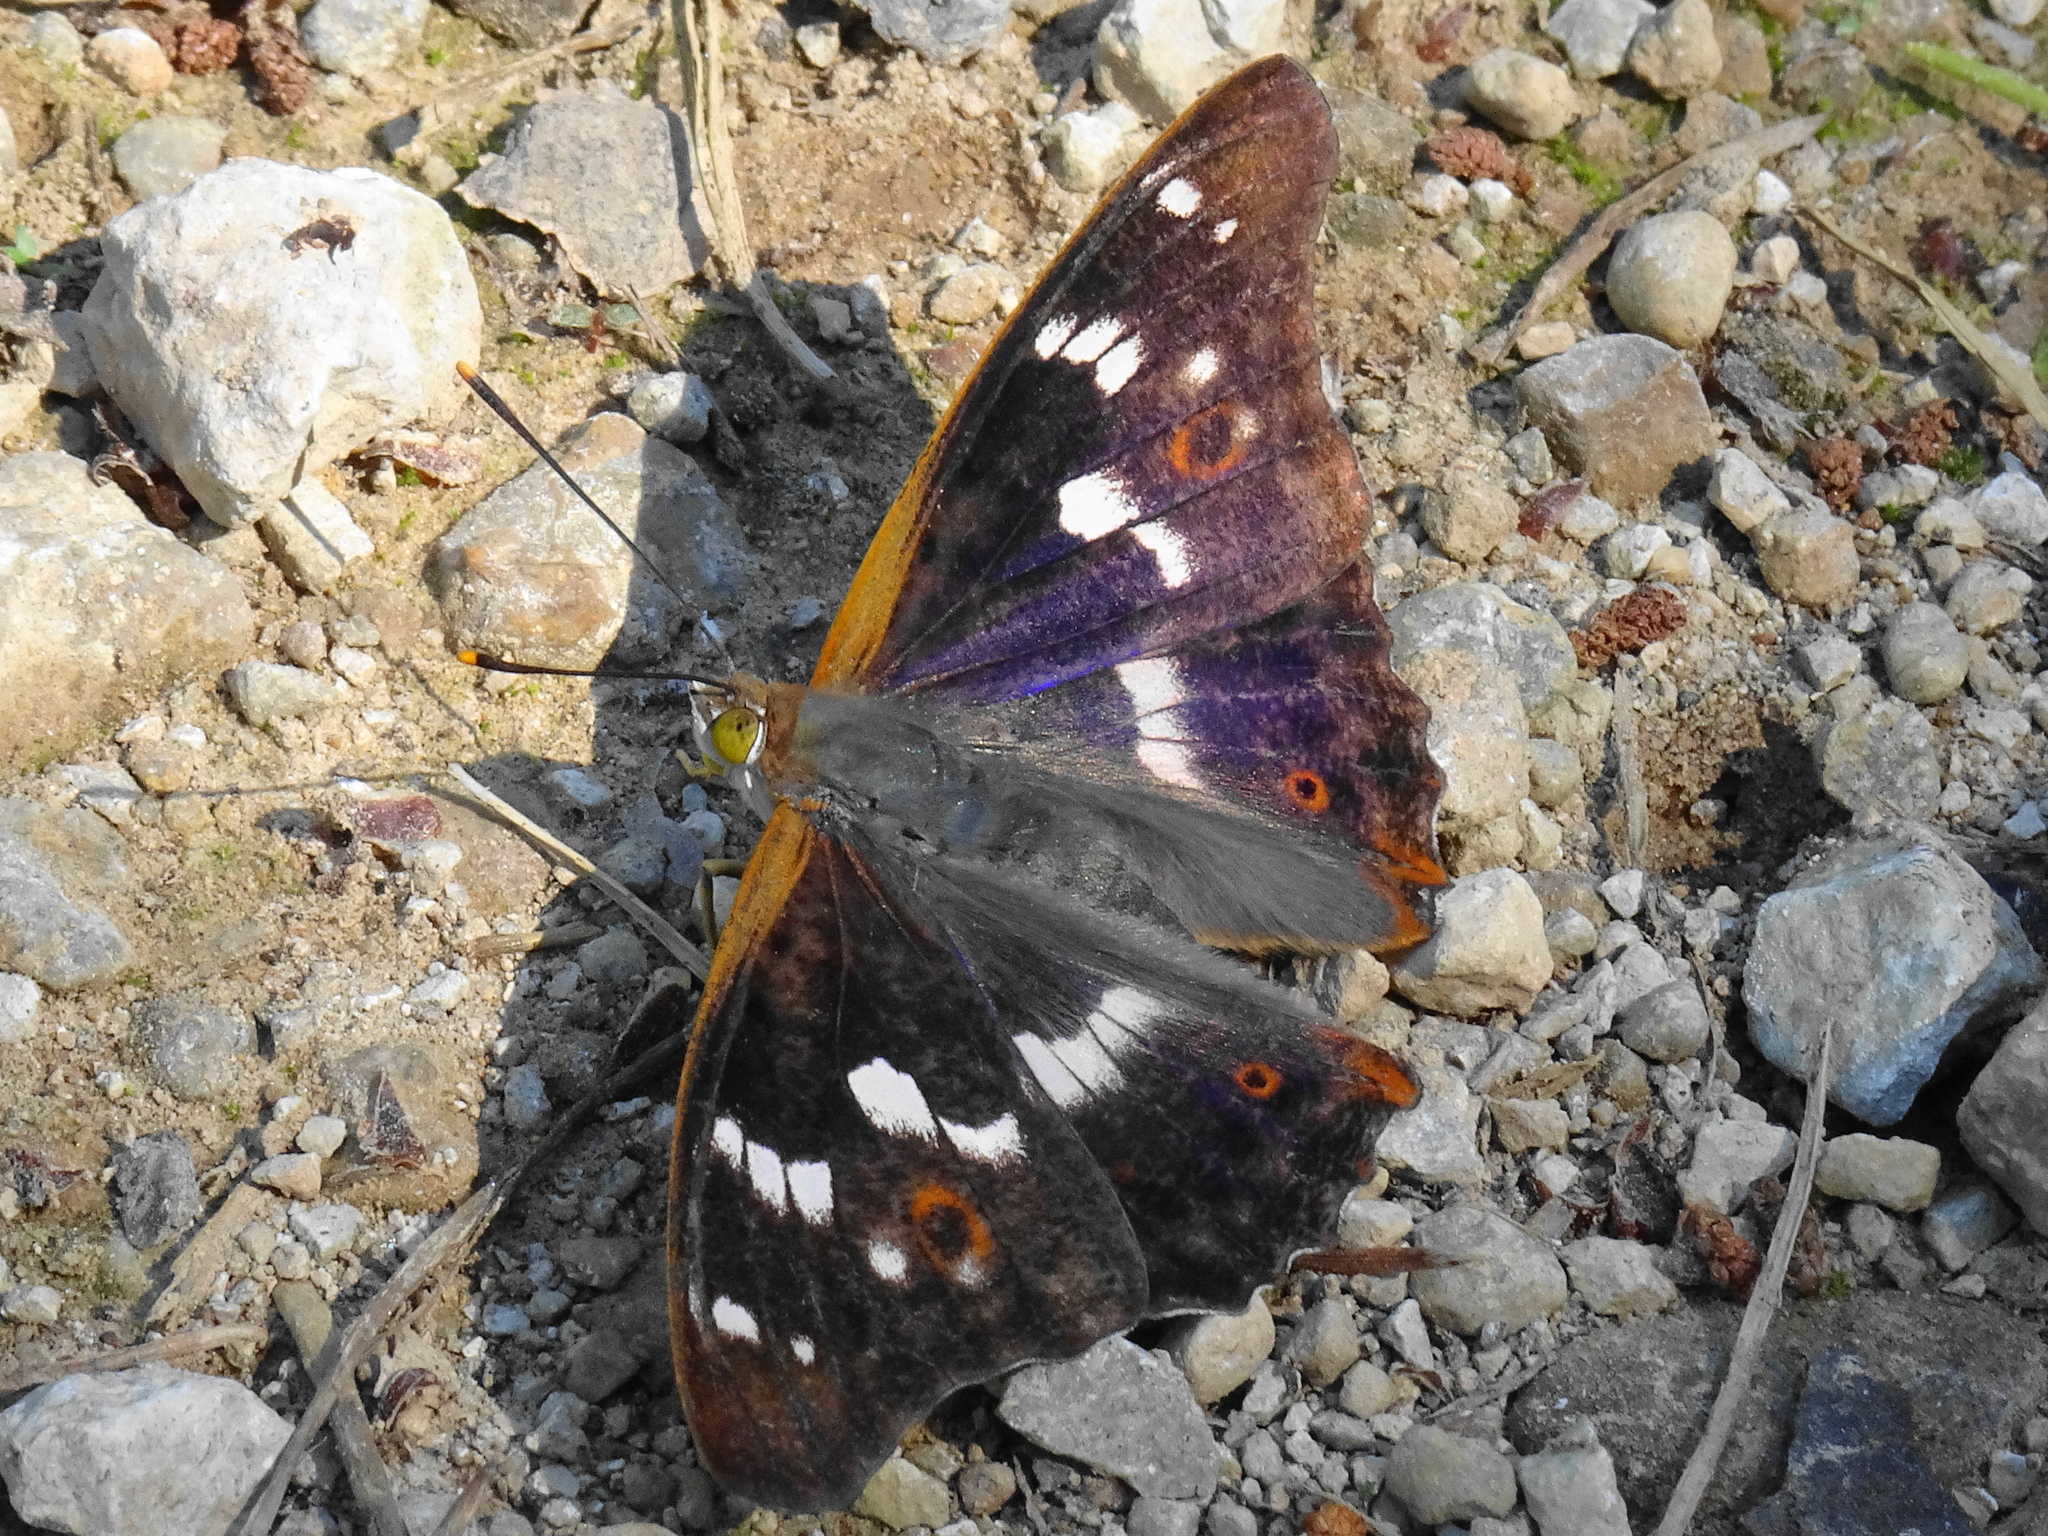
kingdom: Animalia
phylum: Arthropoda
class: Insecta
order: Lepidoptera
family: Nymphalidae
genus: Apatura
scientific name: Apatura ilia
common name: Lesser purple emperor
